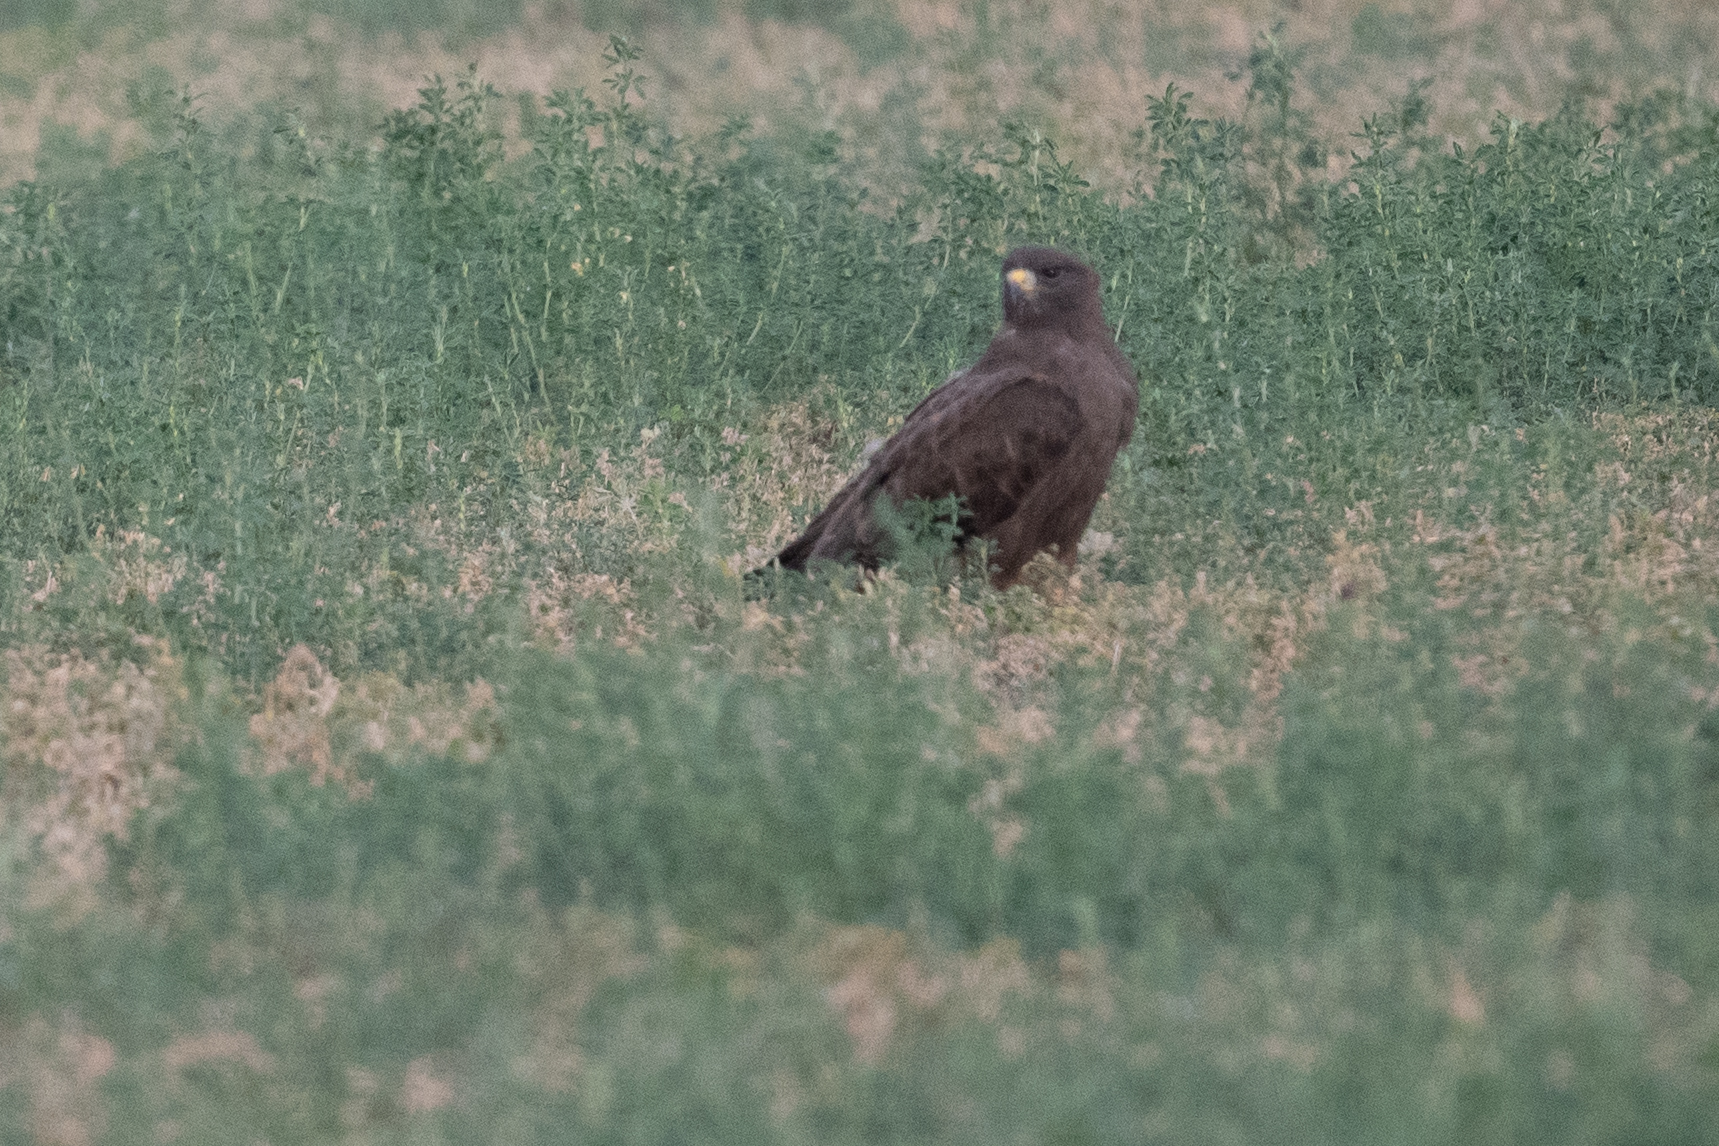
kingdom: Animalia
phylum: Chordata
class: Aves
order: Accipitriformes
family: Accipitridae
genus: Buteo
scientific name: Buteo swainsoni
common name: Swainson's hawk
